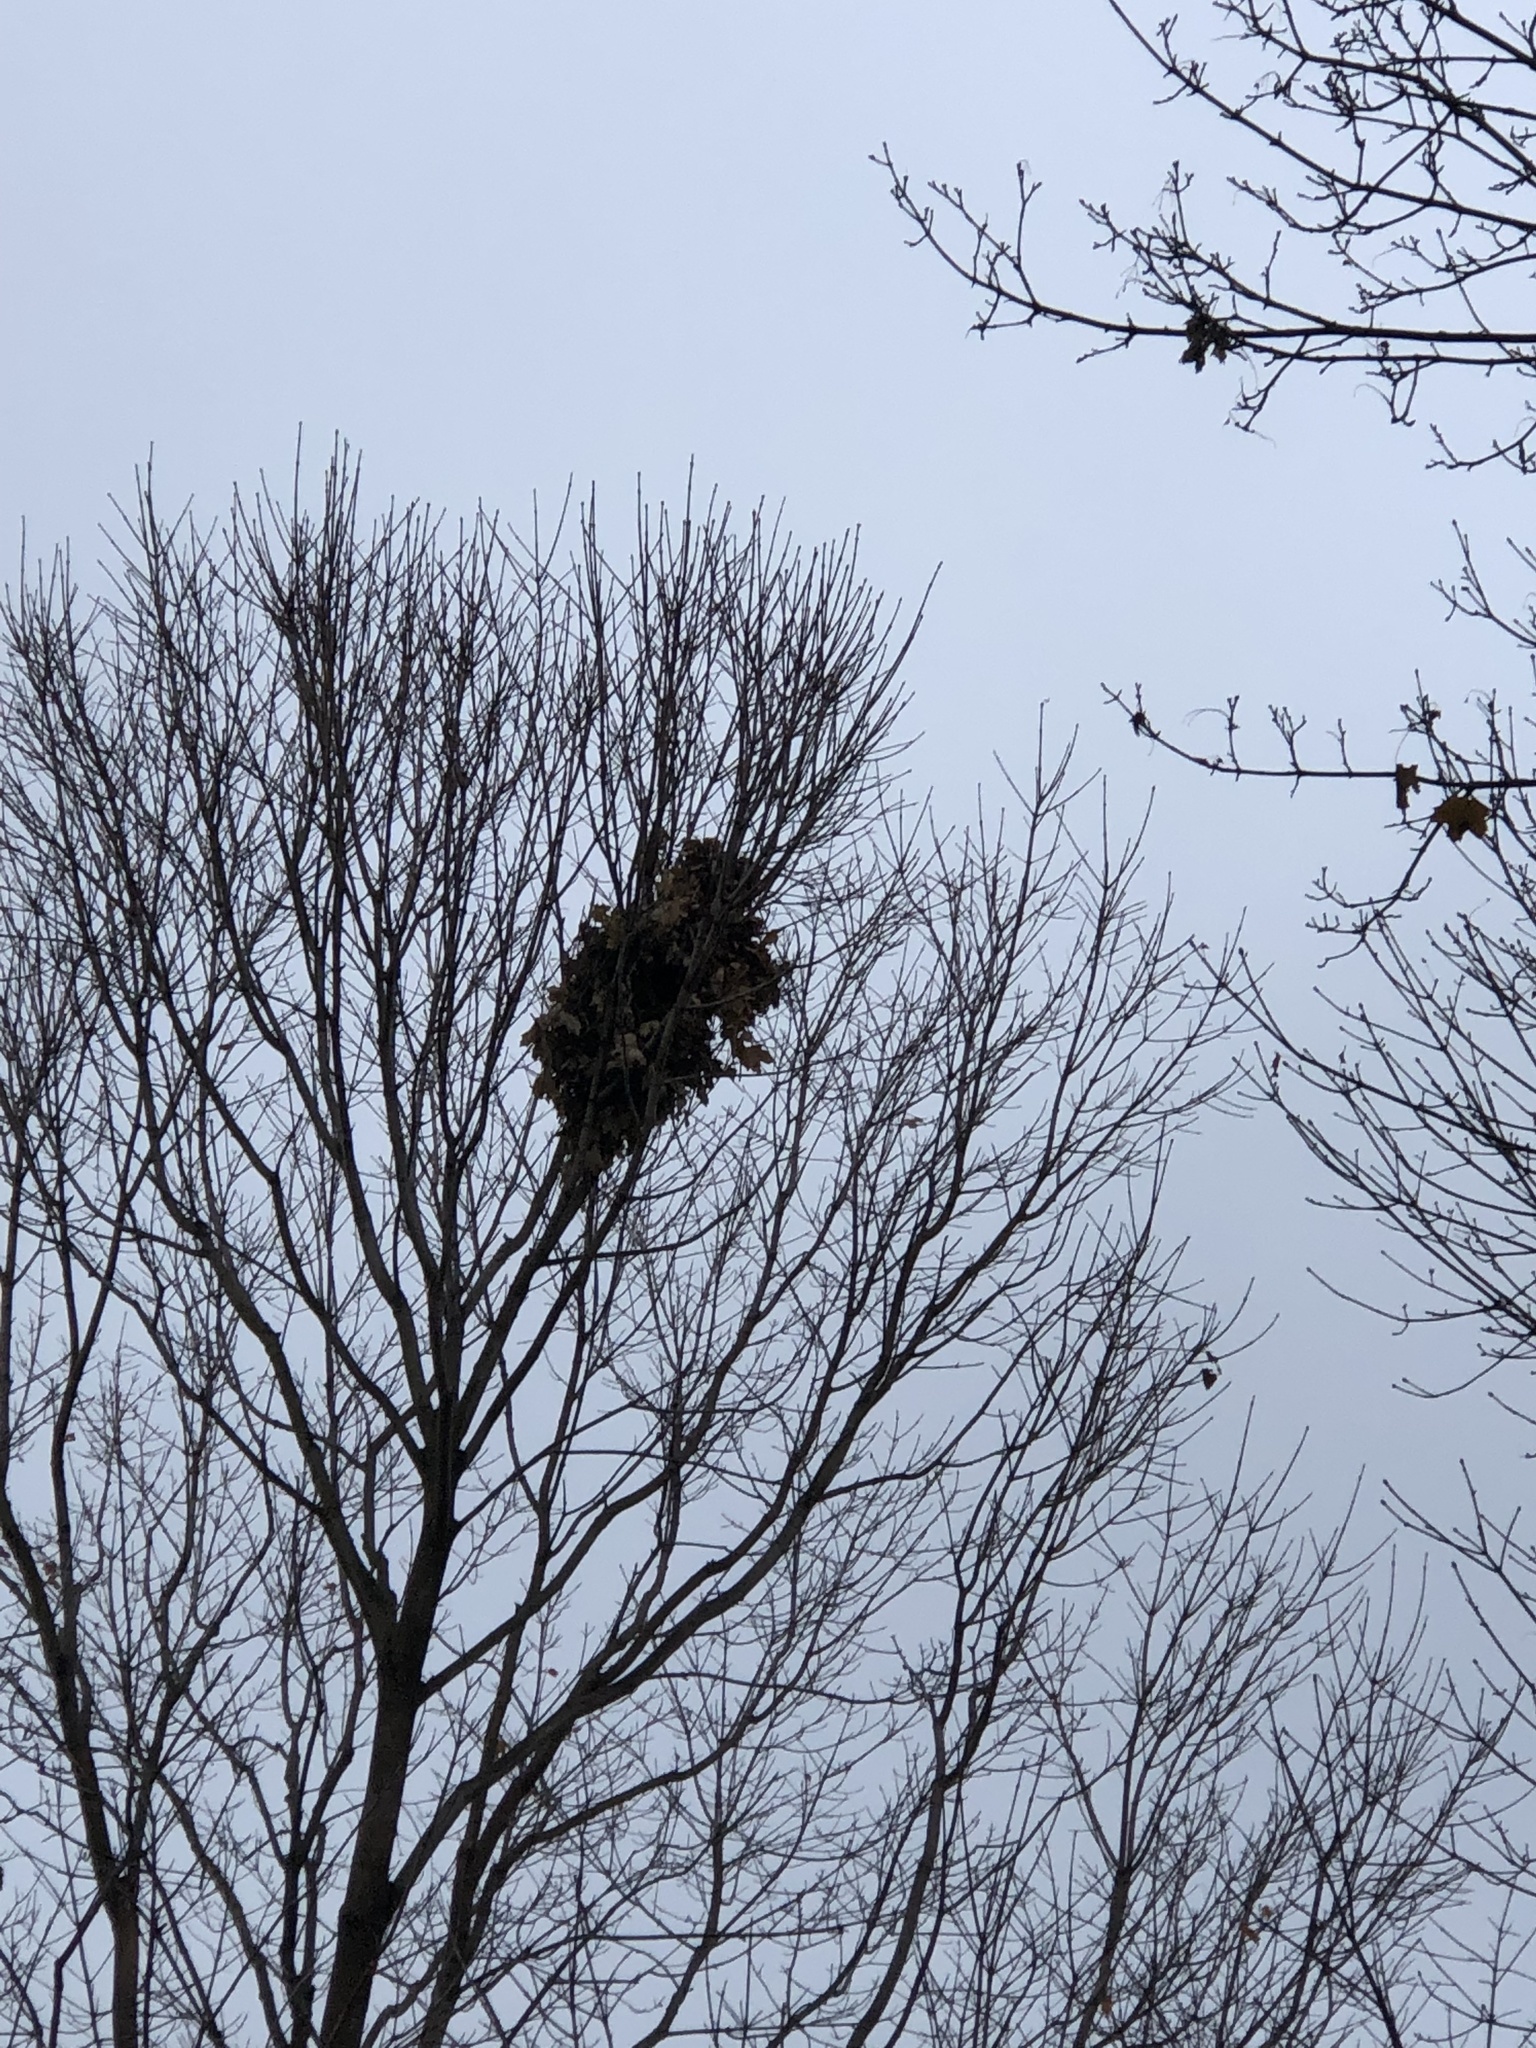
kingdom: Animalia
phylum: Chordata
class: Mammalia
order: Rodentia
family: Sciuridae
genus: Sciurus
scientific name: Sciurus carolinensis
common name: Eastern gray squirrel
